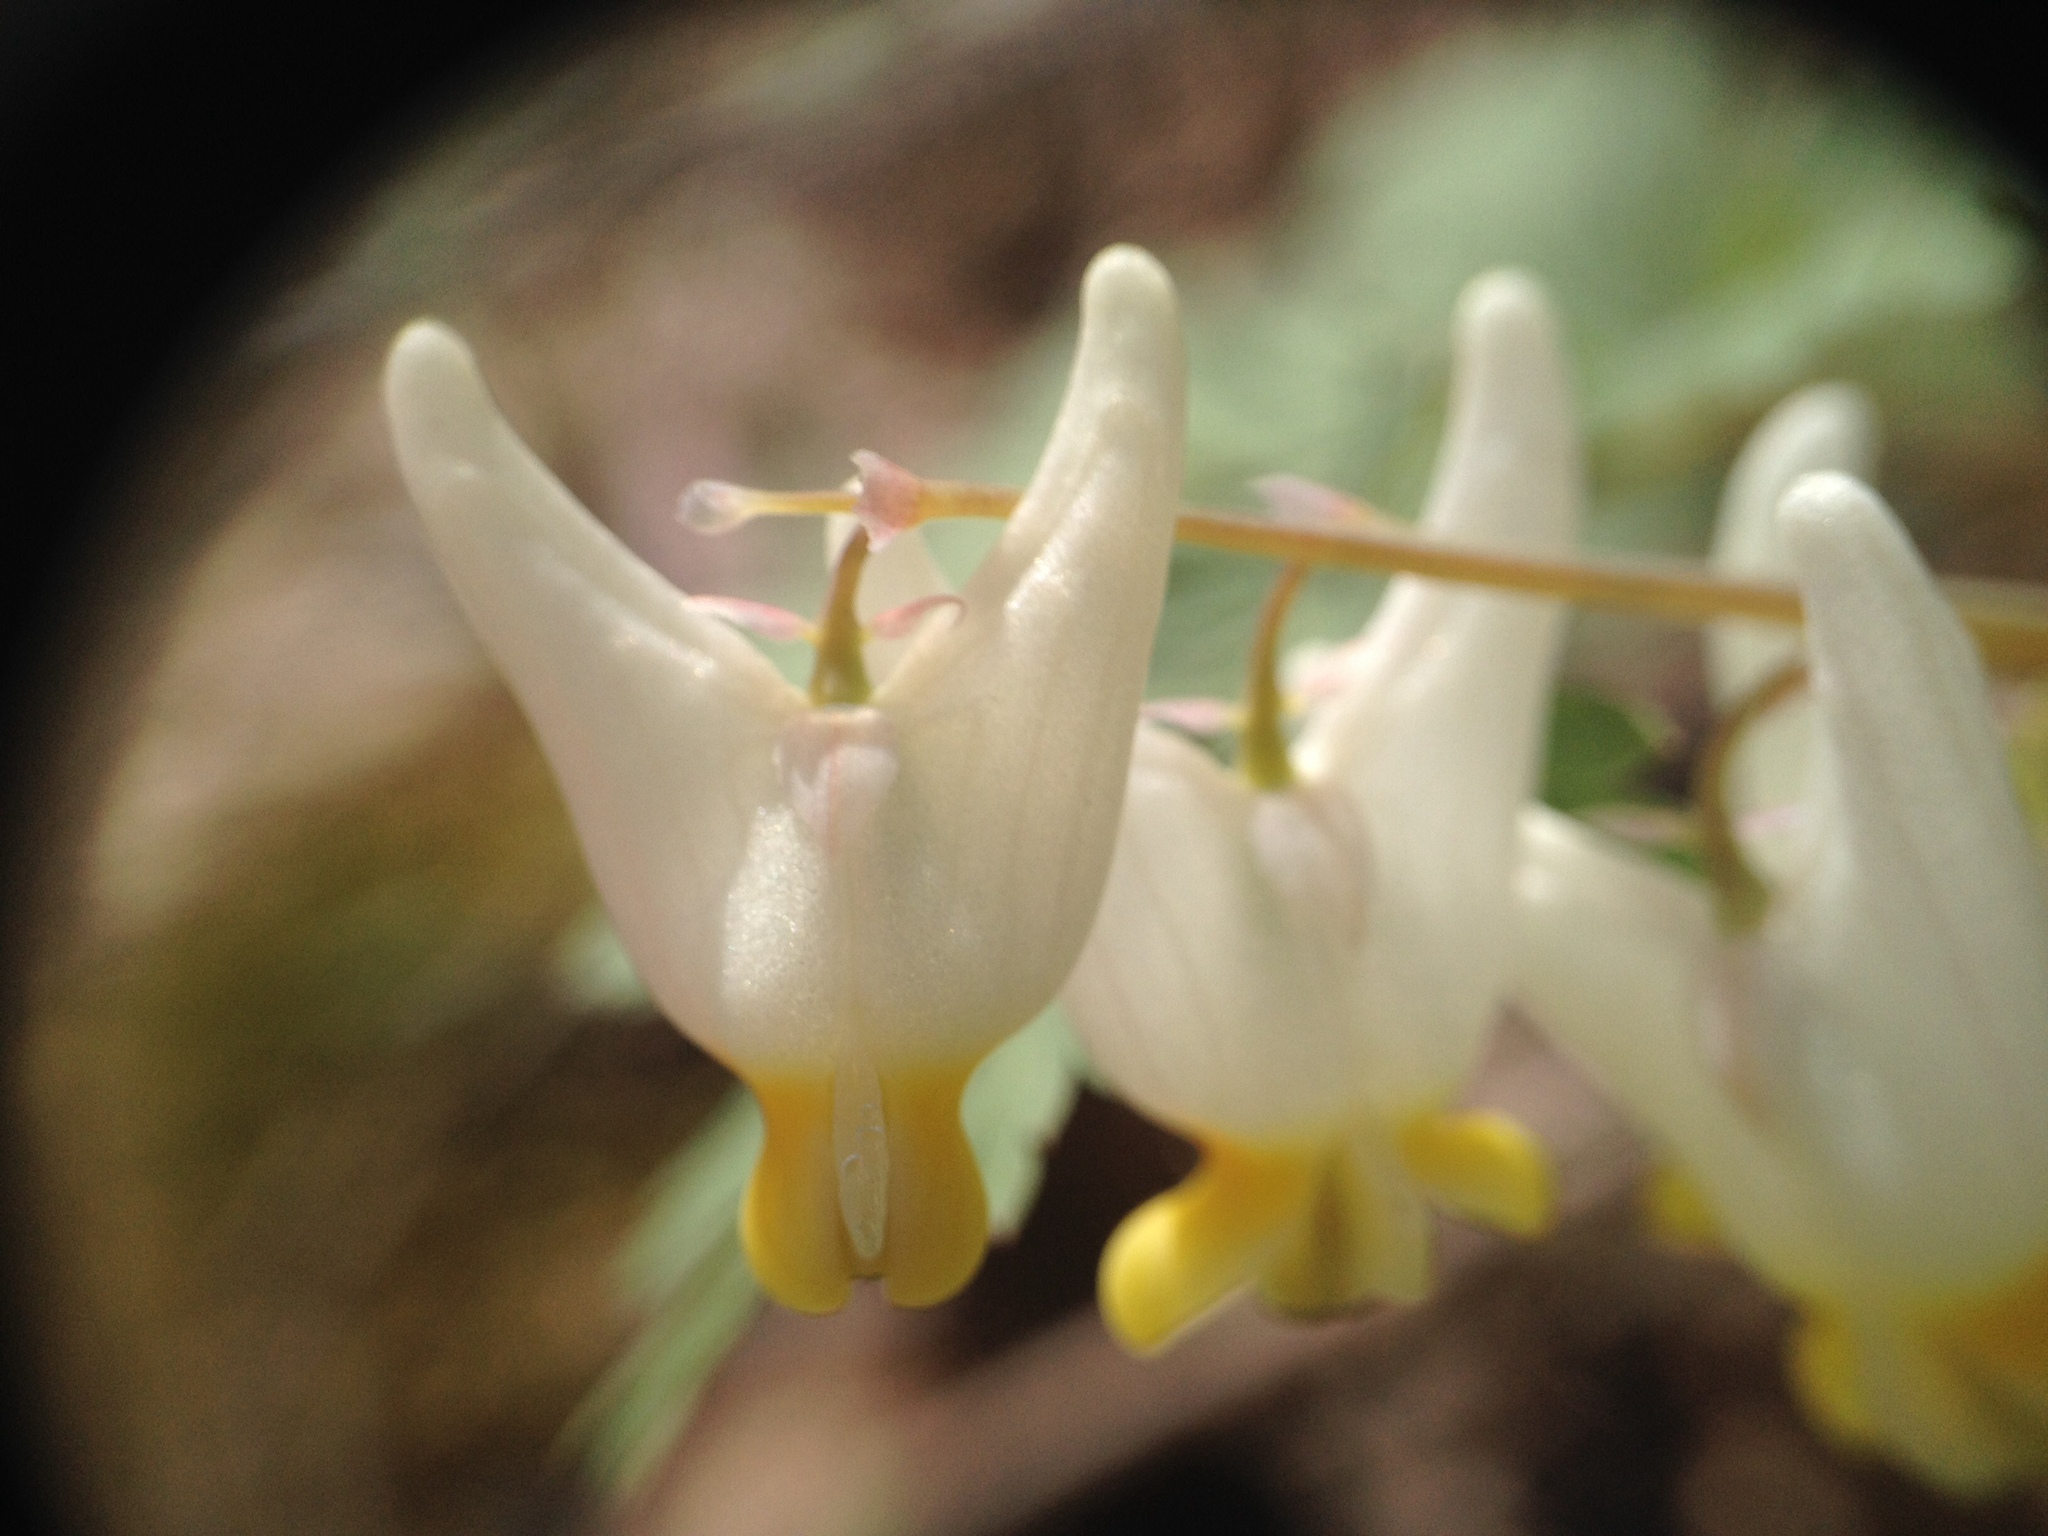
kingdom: Plantae
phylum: Tracheophyta
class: Magnoliopsida
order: Ranunculales
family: Papaveraceae
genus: Dicentra
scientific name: Dicentra cucullaria
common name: Dutchman's breeches
